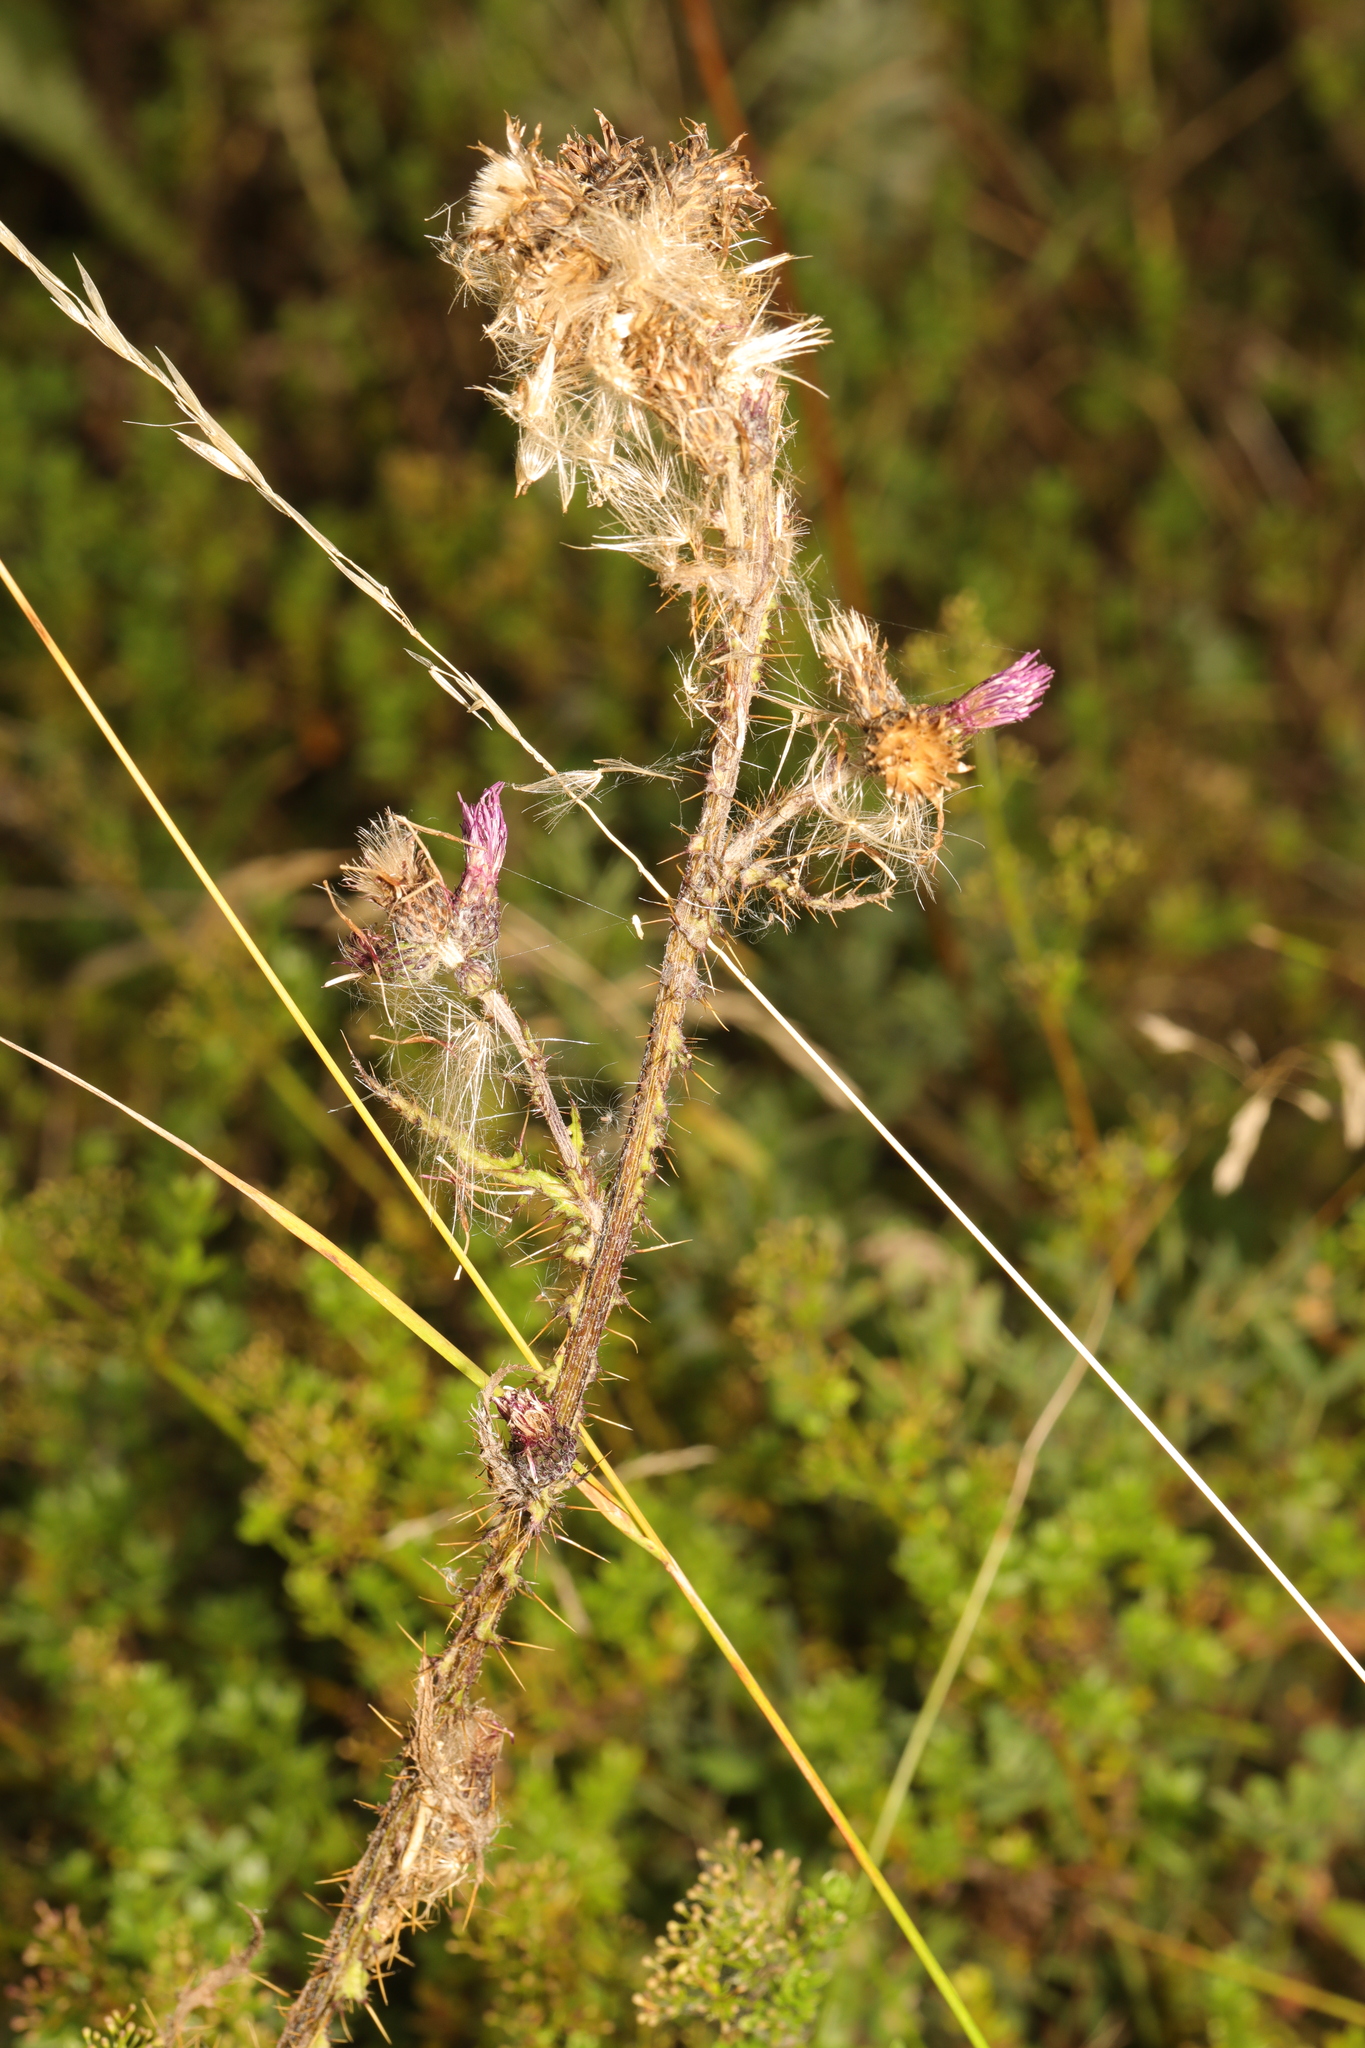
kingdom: Plantae
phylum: Tracheophyta
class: Magnoliopsida
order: Asterales
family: Asteraceae
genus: Cirsium
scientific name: Cirsium palustre
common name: Marsh thistle
